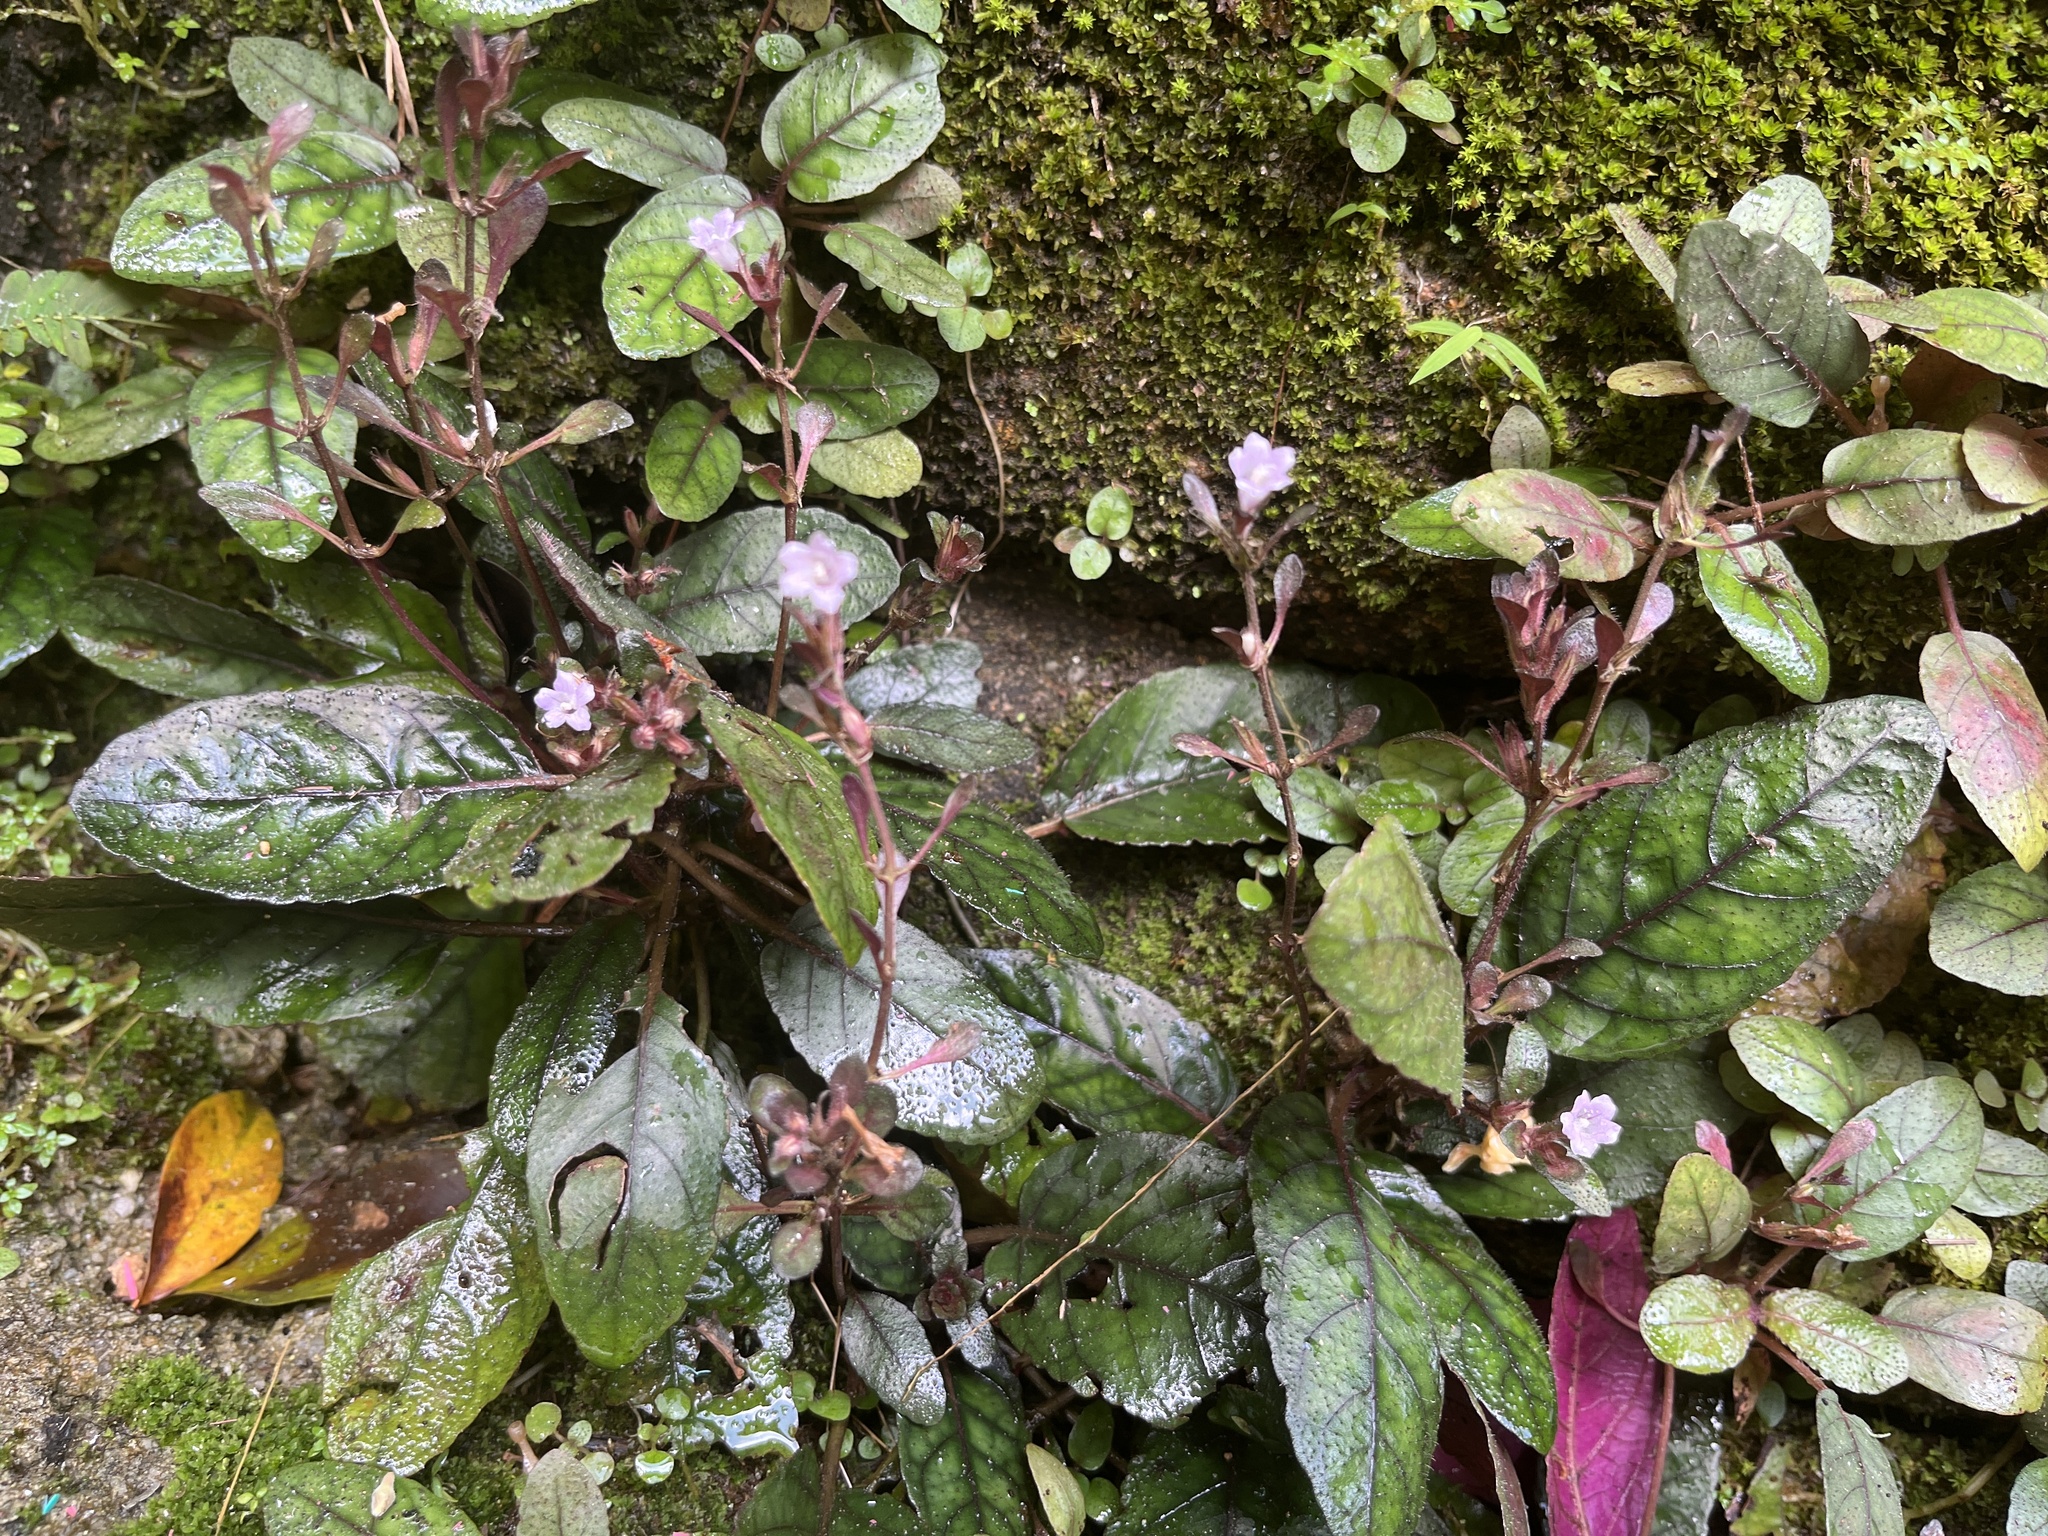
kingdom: Plantae
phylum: Tracheophyta
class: Magnoliopsida
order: Lamiales
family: Acanthaceae
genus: Strobilanthes
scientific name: Strobilanthes reptans
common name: Acanthaceae
